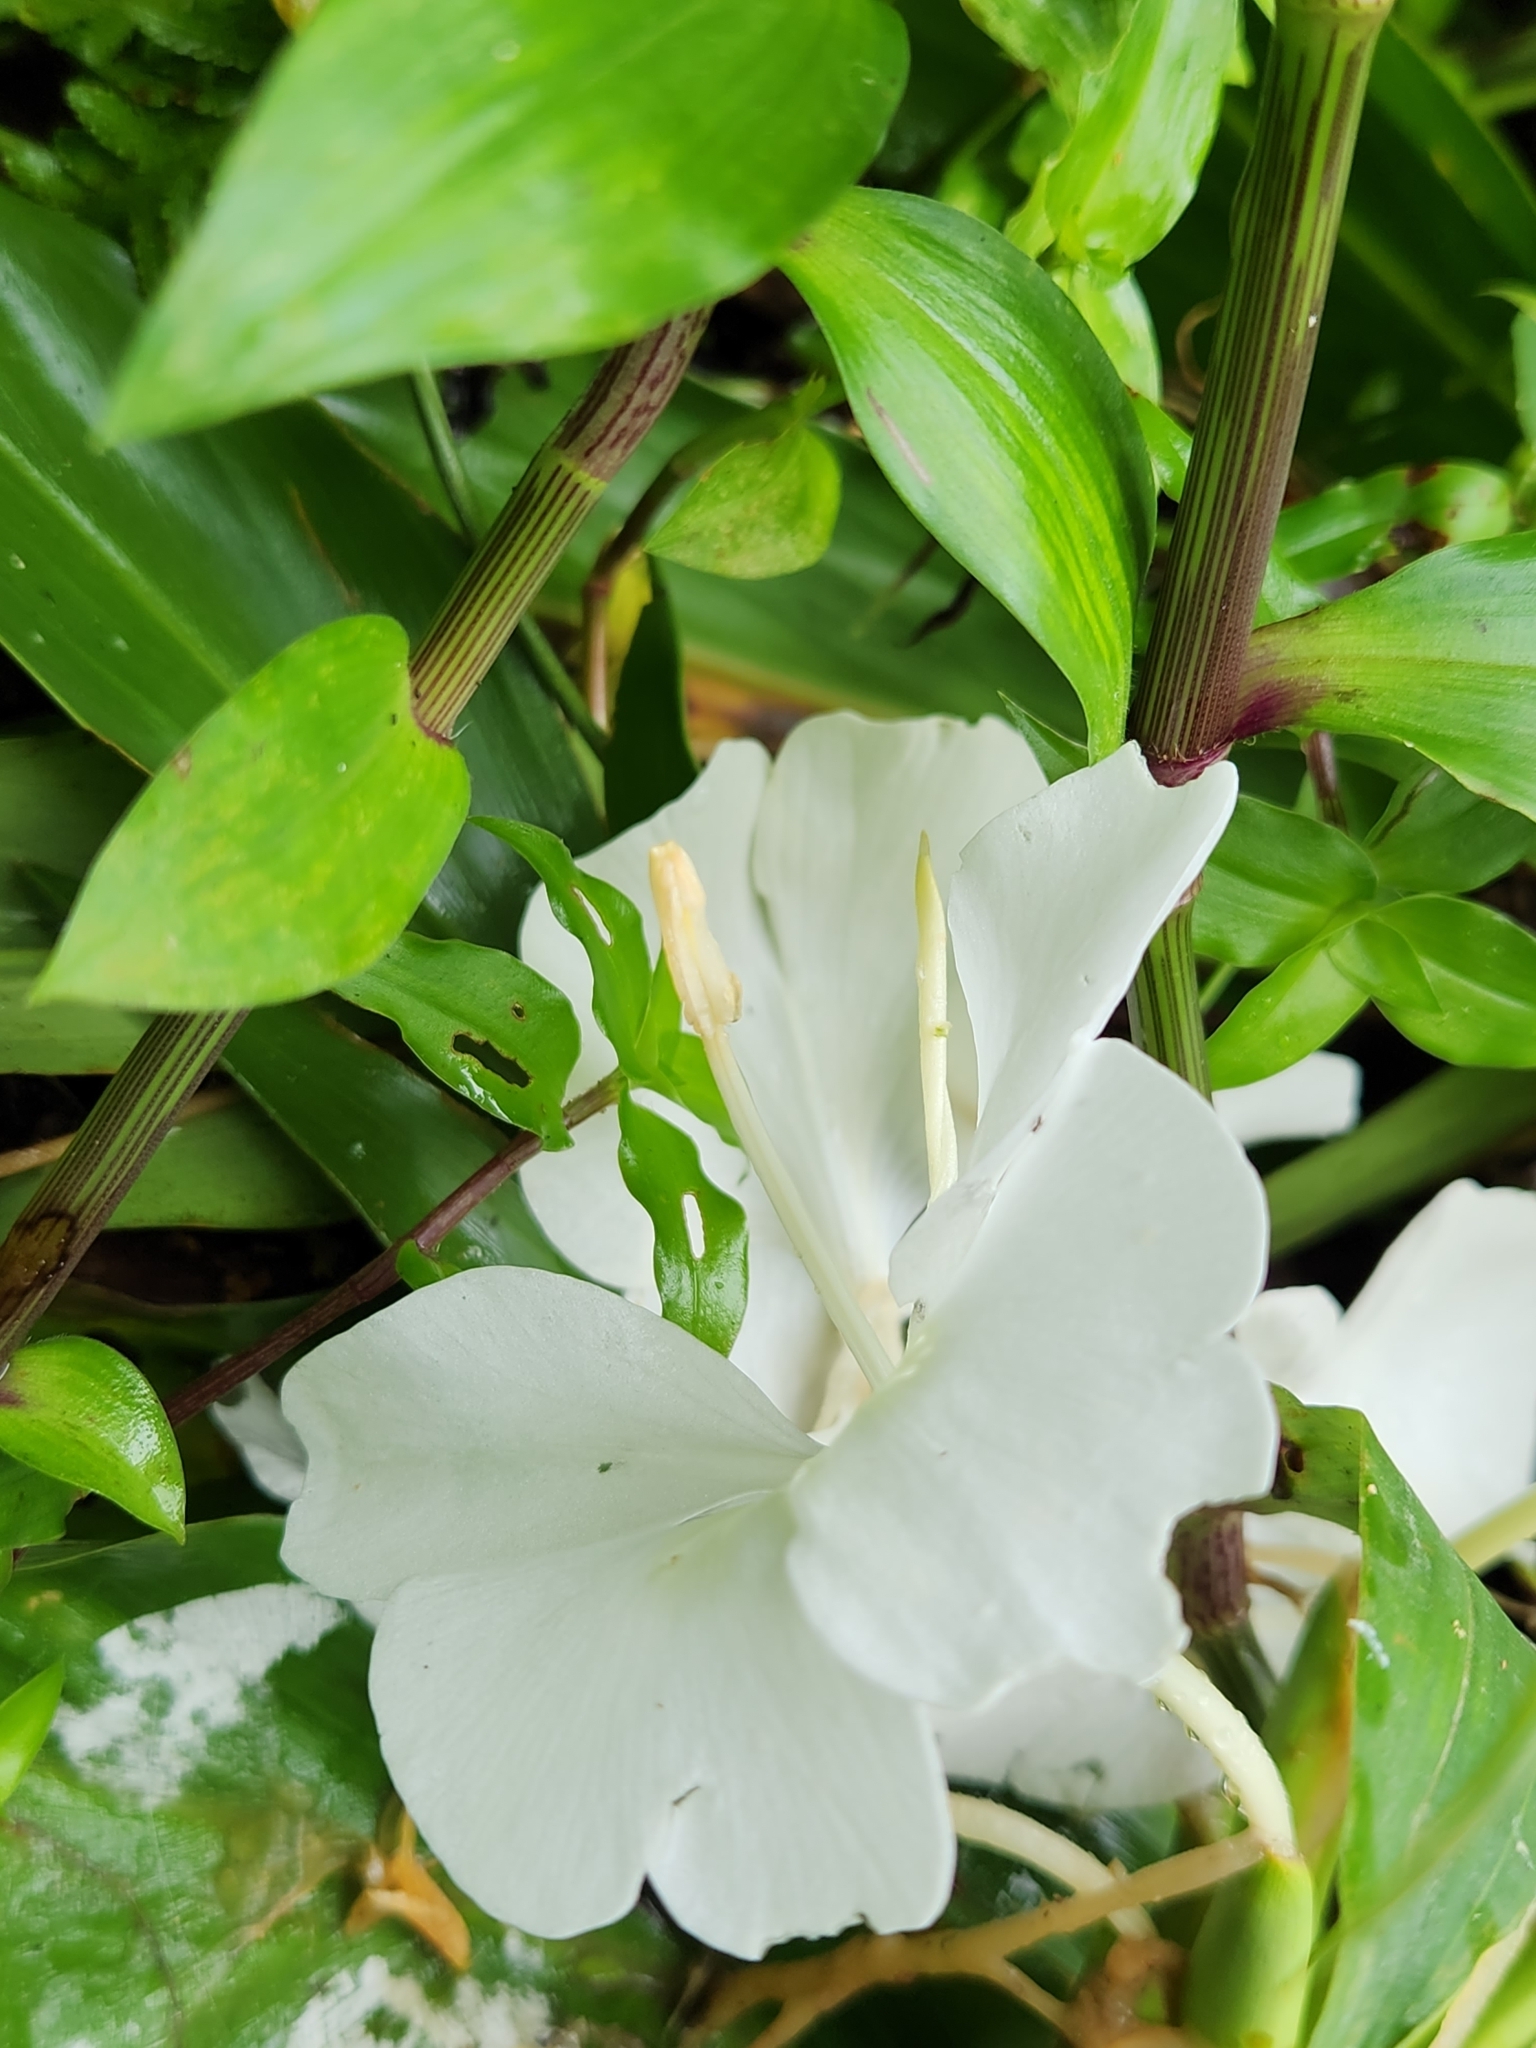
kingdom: Plantae
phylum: Tracheophyta
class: Liliopsida
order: Zingiberales
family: Zingiberaceae
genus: Hedychium
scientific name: Hedychium coronarium
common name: White garland-lily
